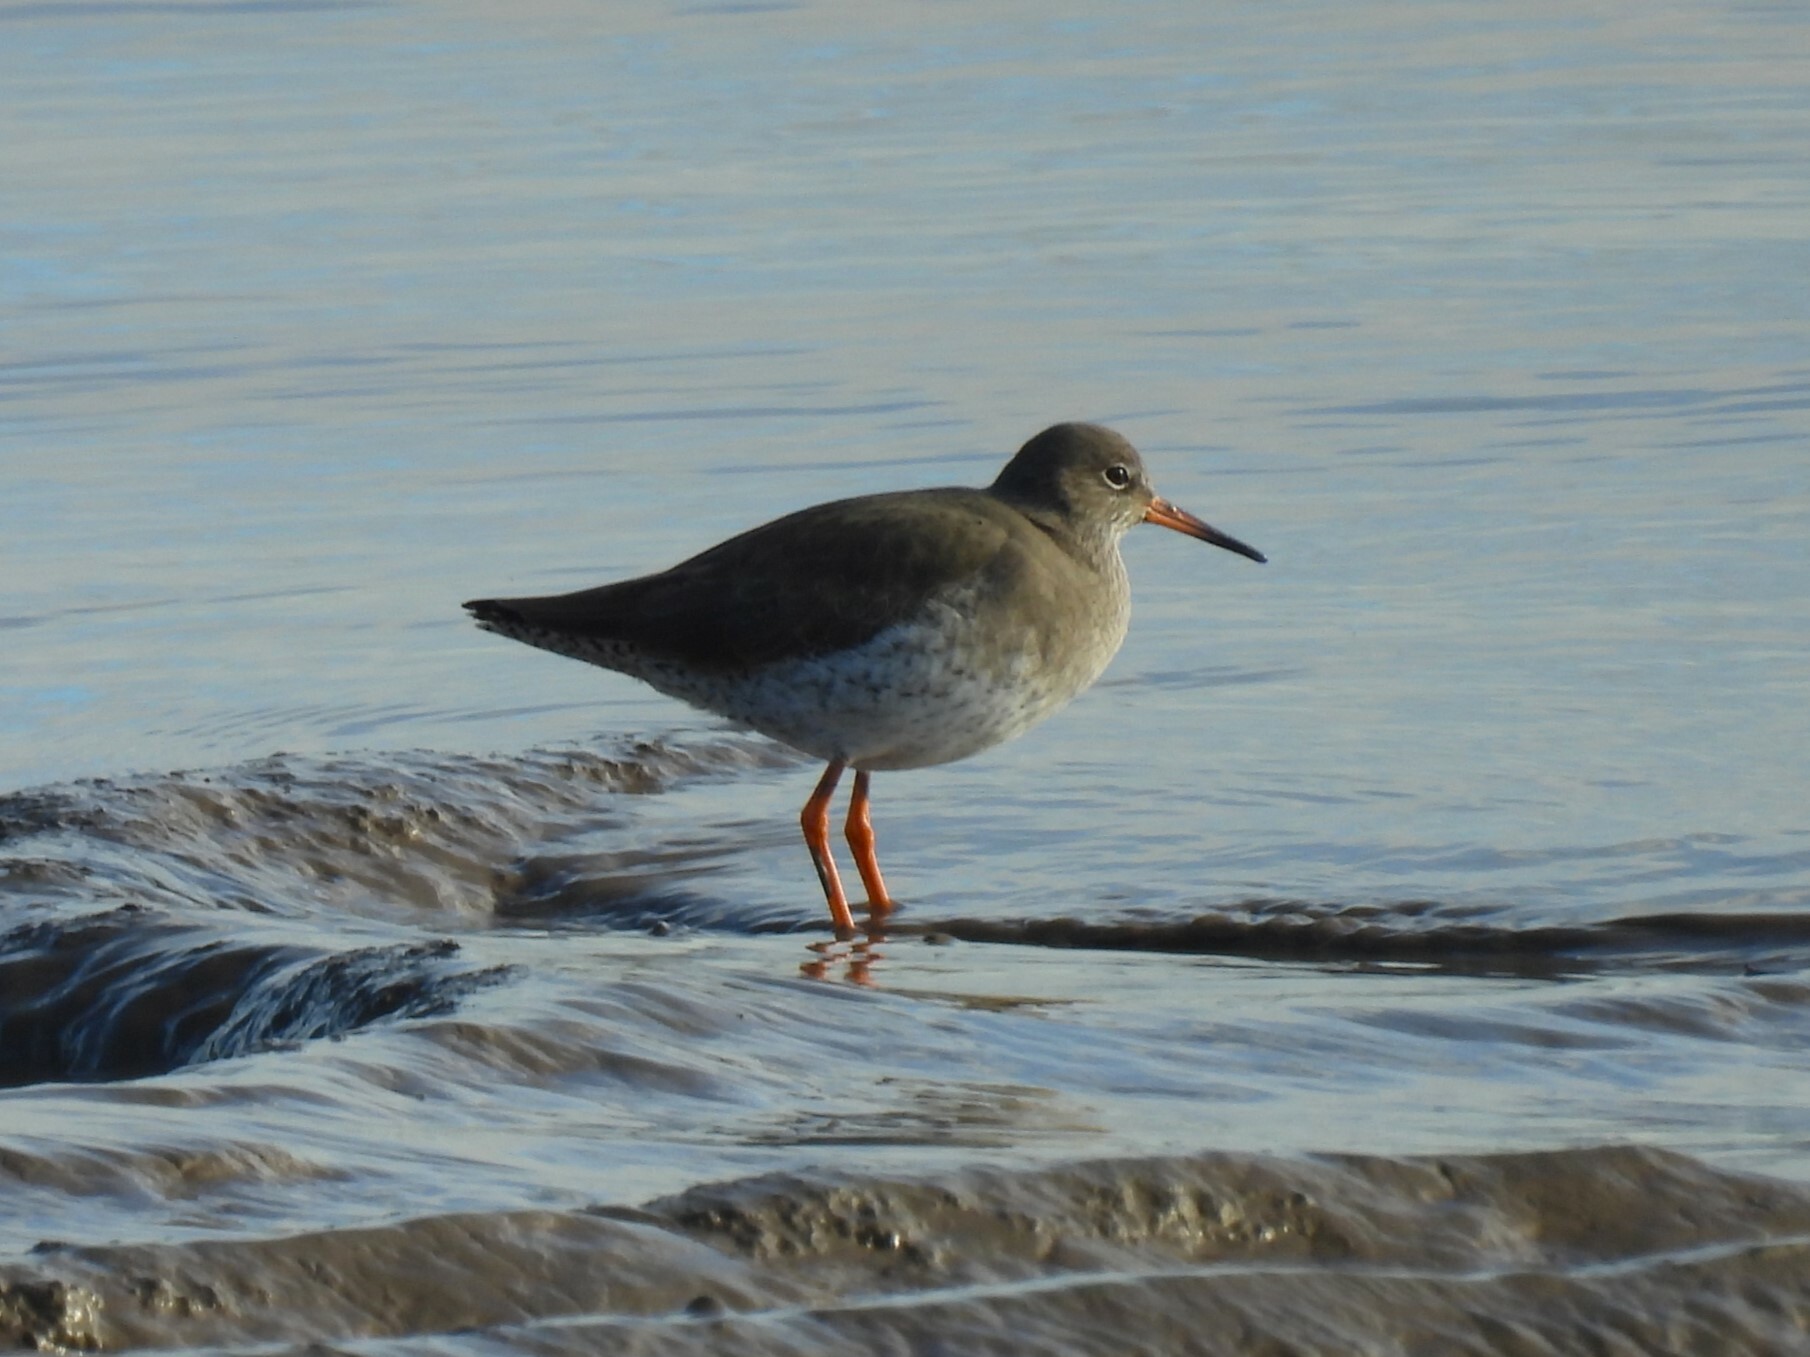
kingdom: Animalia
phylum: Chordata
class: Aves
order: Charadriiformes
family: Scolopacidae
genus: Tringa
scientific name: Tringa totanus
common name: Common redshank
